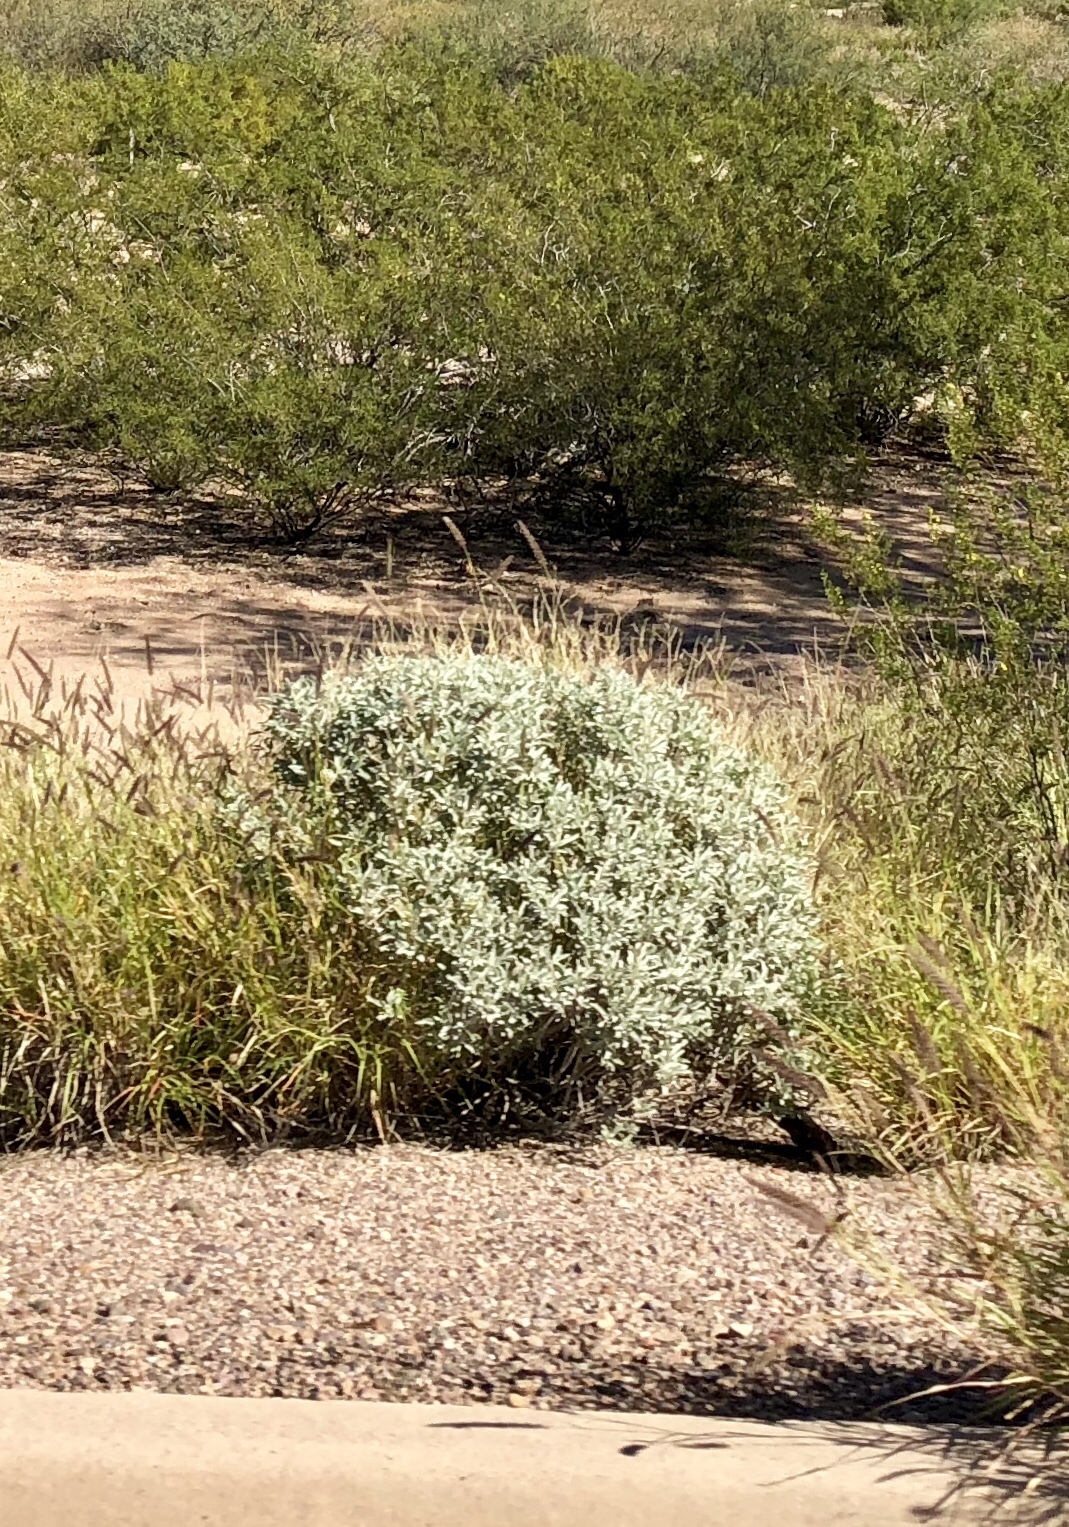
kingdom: Plantae
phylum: Tracheophyta
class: Magnoliopsida
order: Asterales
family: Asteraceae
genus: Encelia
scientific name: Encelia farinosa
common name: Brittlebush
